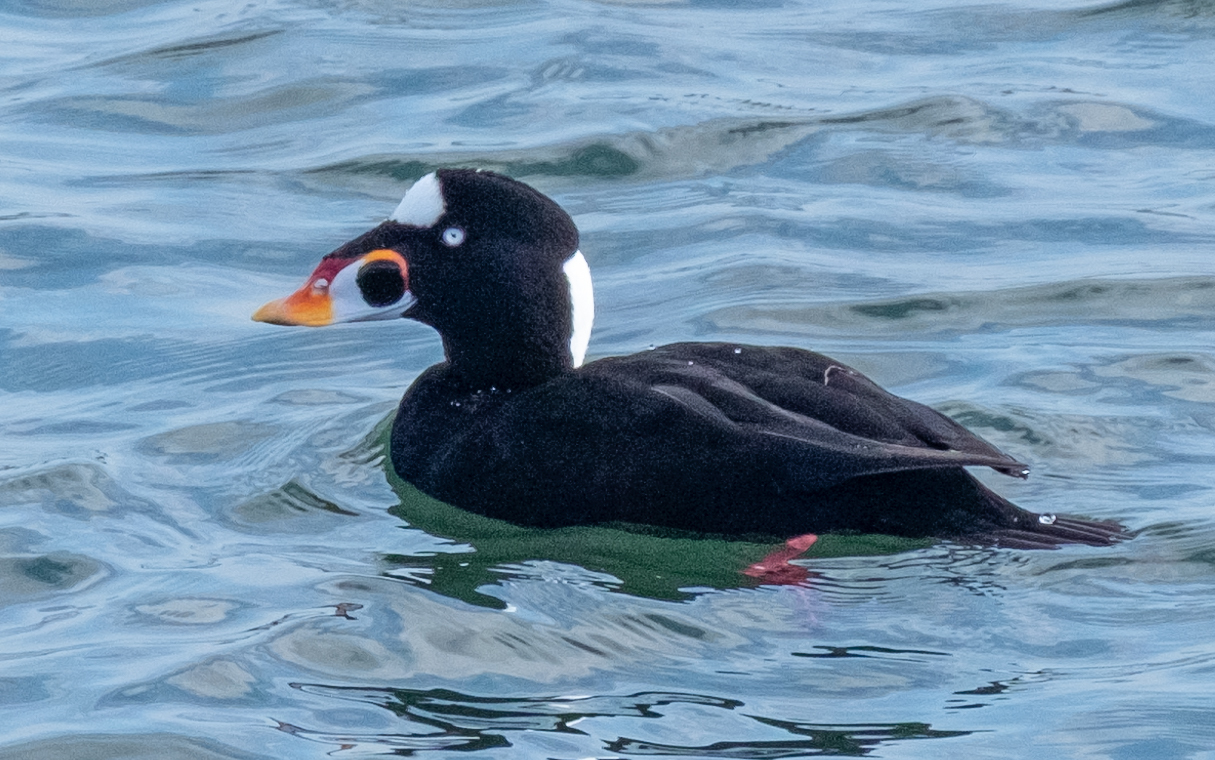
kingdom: Animalia
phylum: Chordata
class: Aves
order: Anseriformes
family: Anatidae
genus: Melanitta
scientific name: Melanitta perspicillata
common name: Surf scoter
